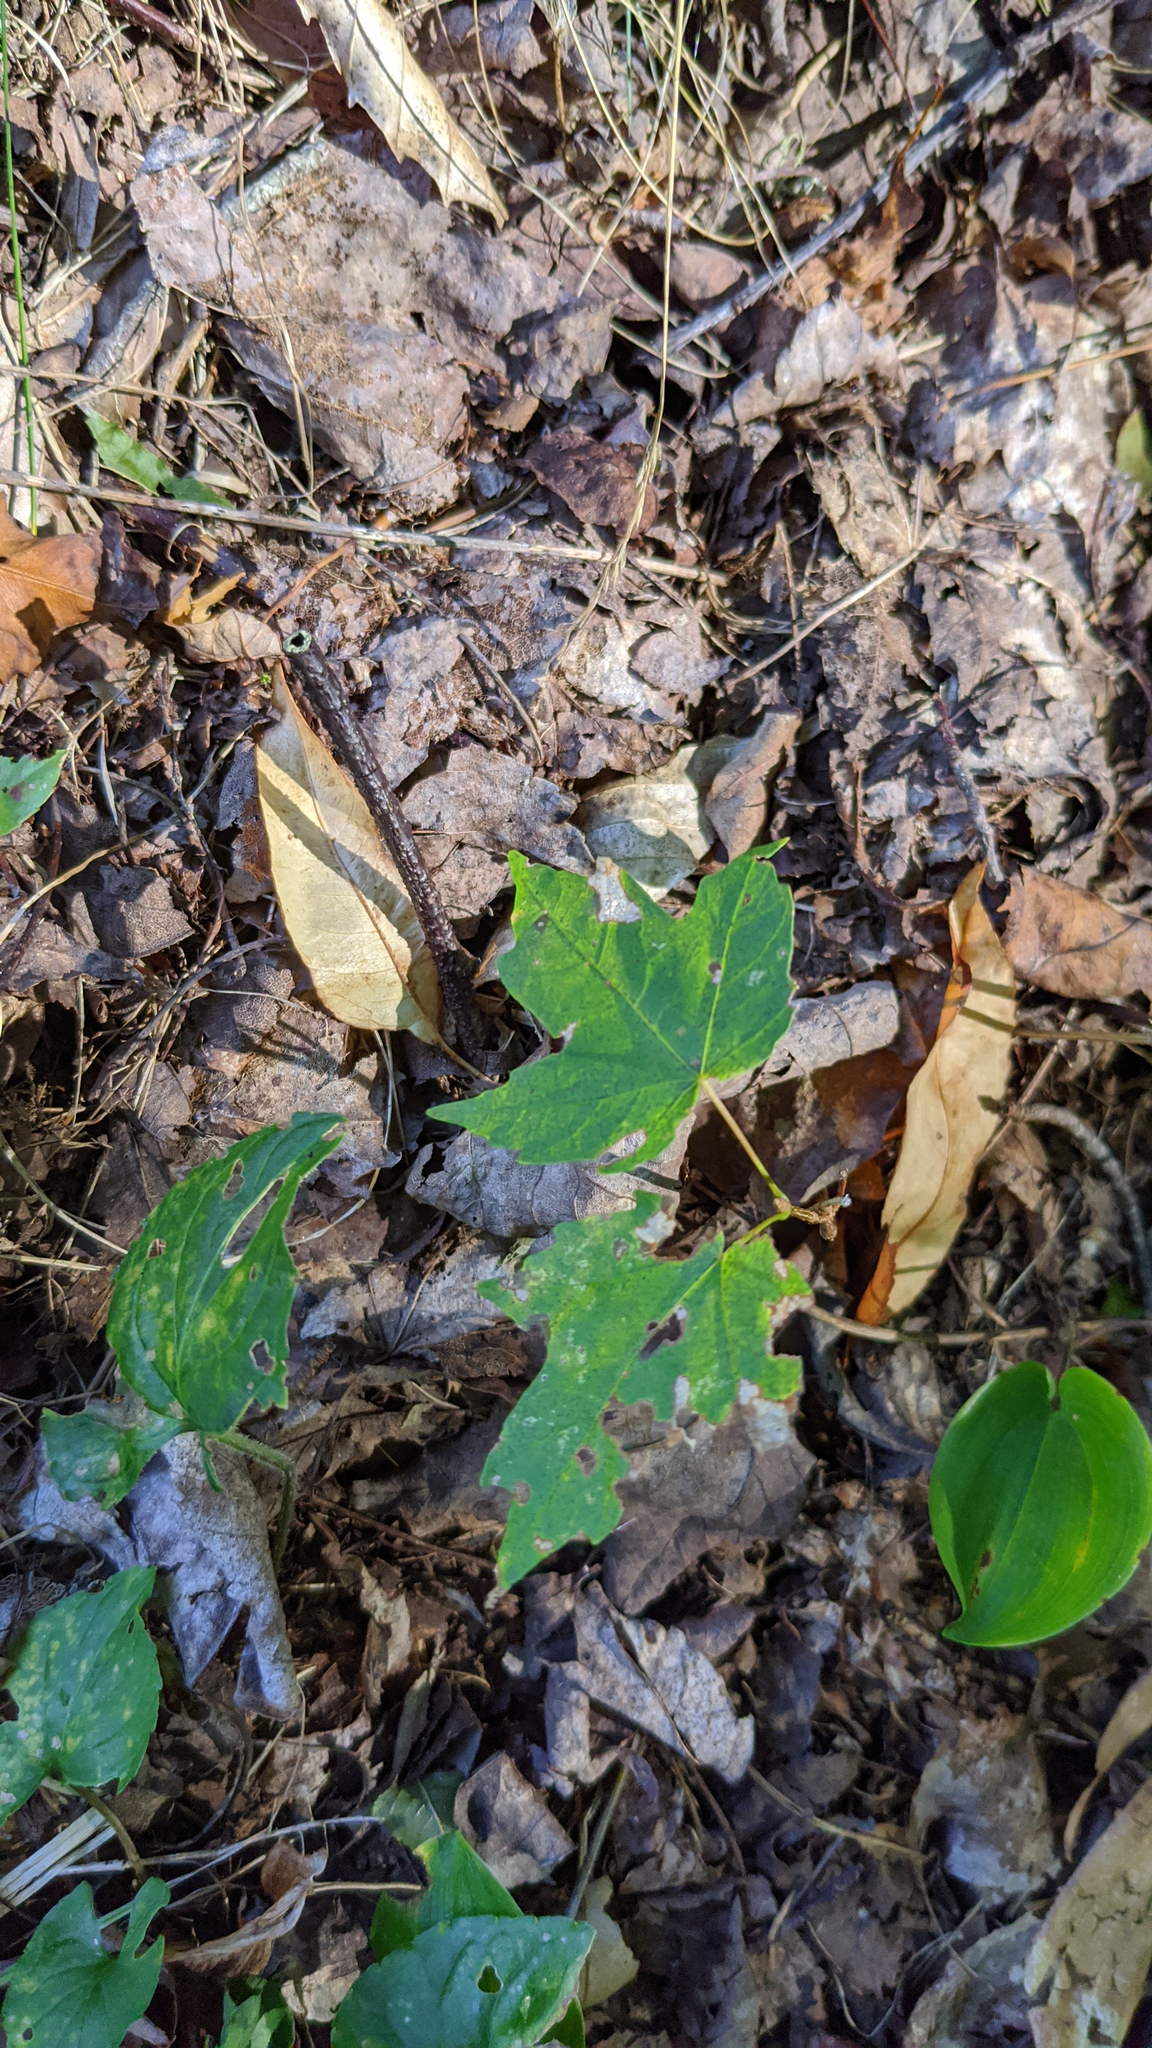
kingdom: Plantae
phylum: Tracheophyta
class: Magnoliopsida
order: Sapindales
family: Sapindaceae
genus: Acer
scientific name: Acer rubrum
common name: Red maple
